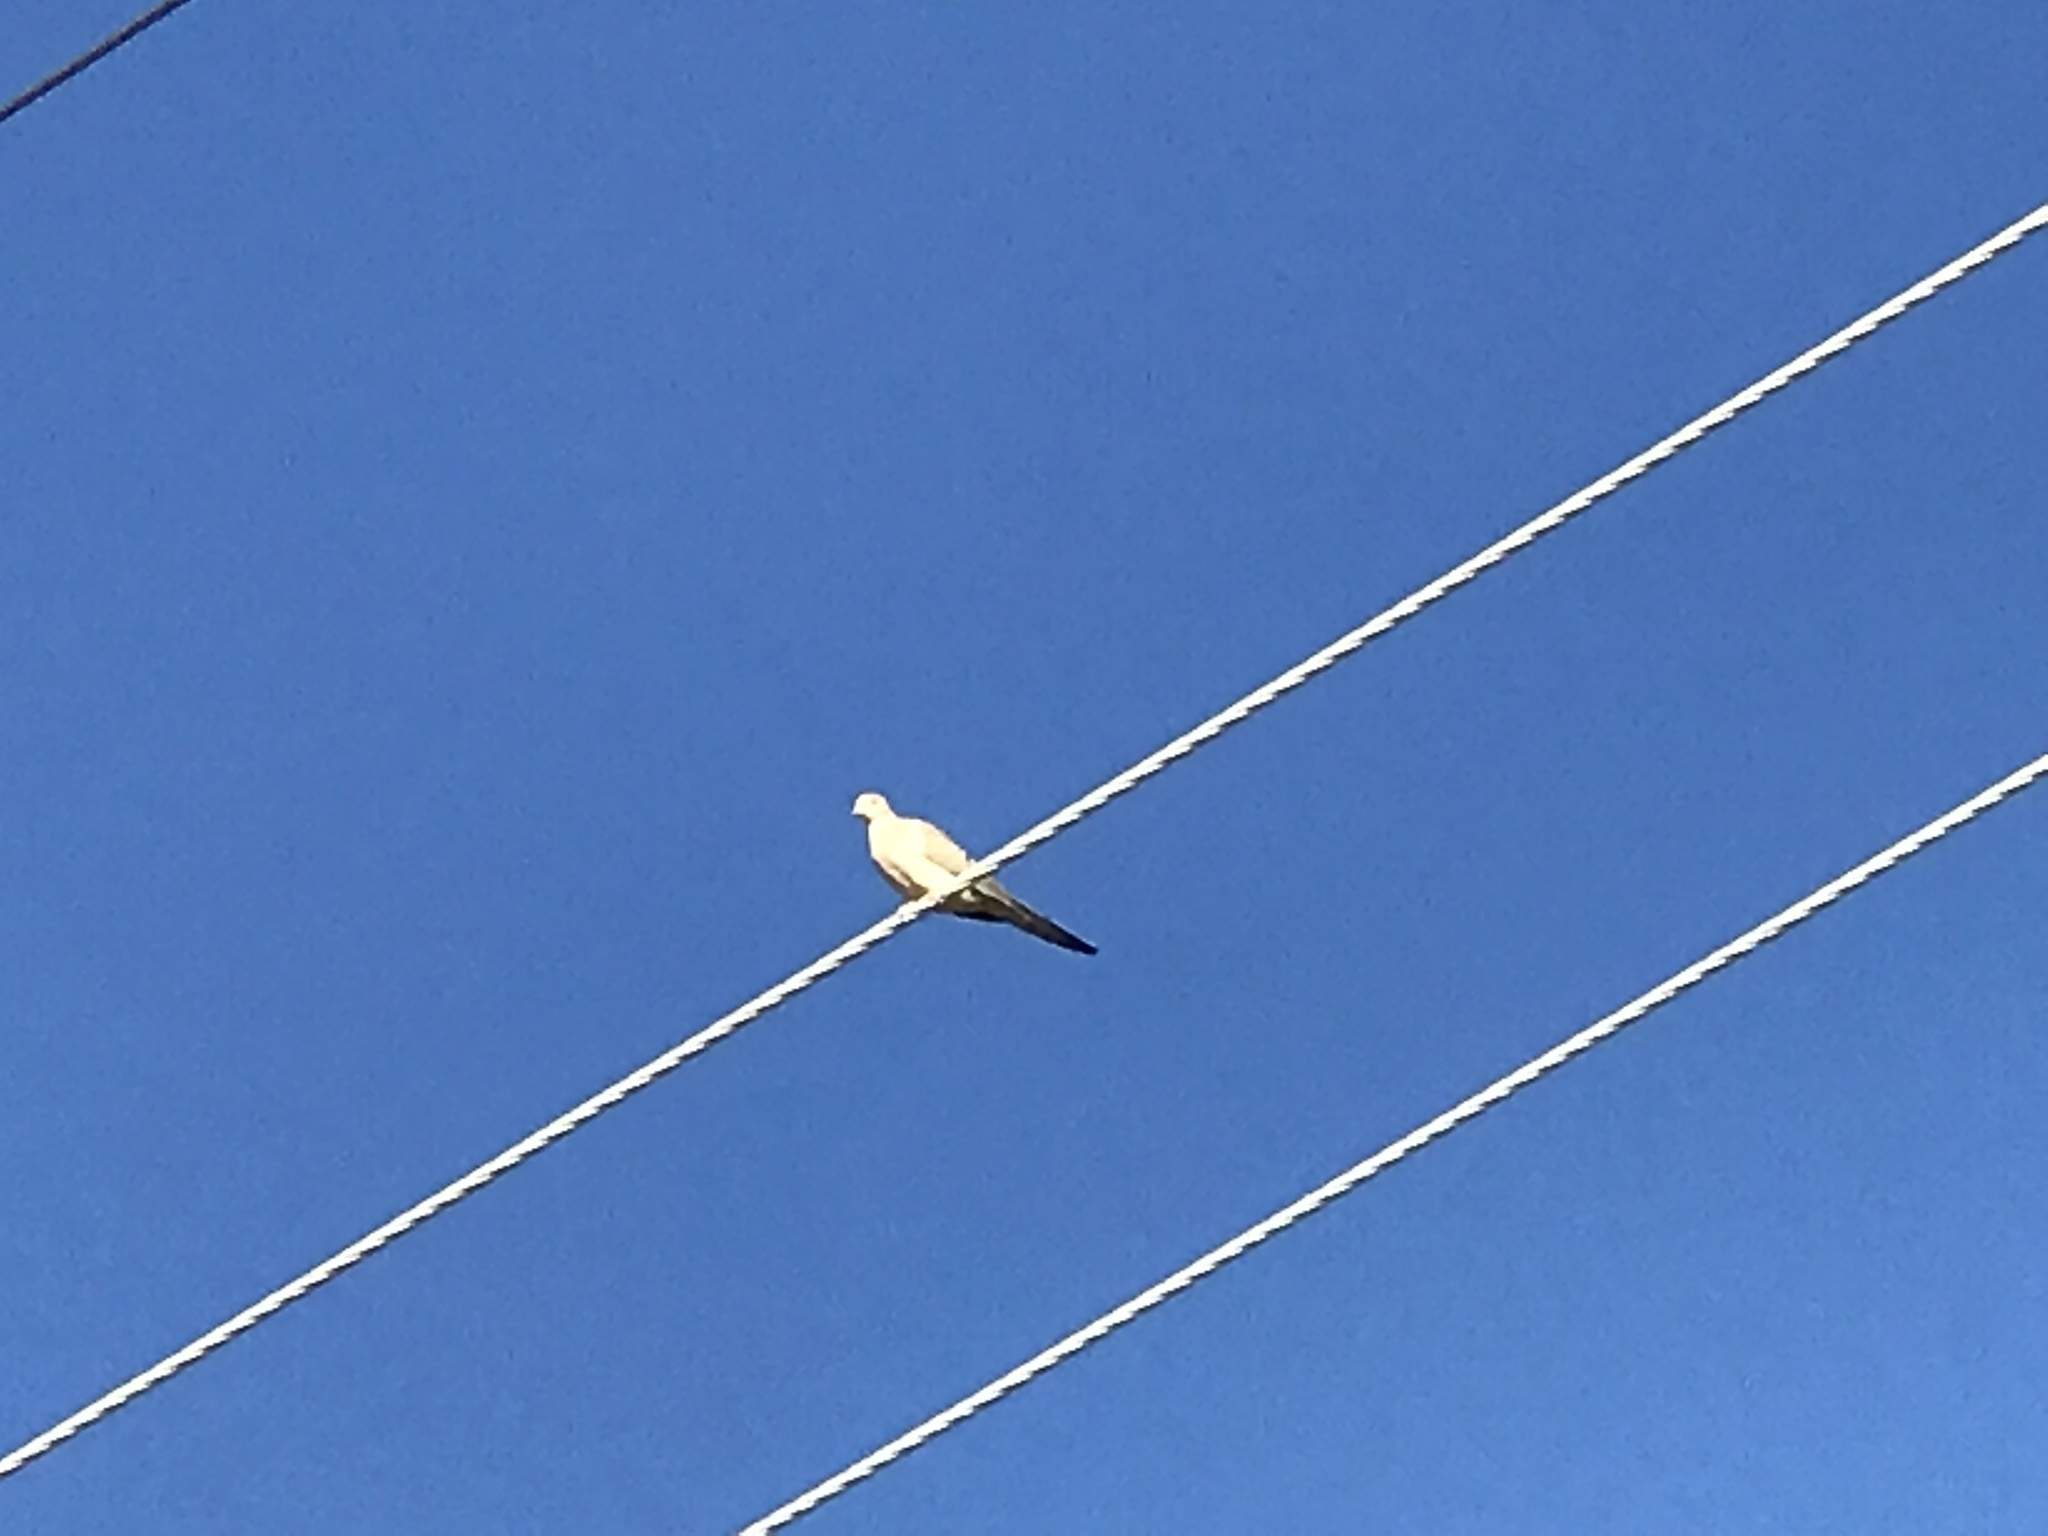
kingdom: Animalia
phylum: Chordata
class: Aves
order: Columbiformes
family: Columbidae
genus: Zenaida
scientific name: Zenaida macroura
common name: Mourning dove
